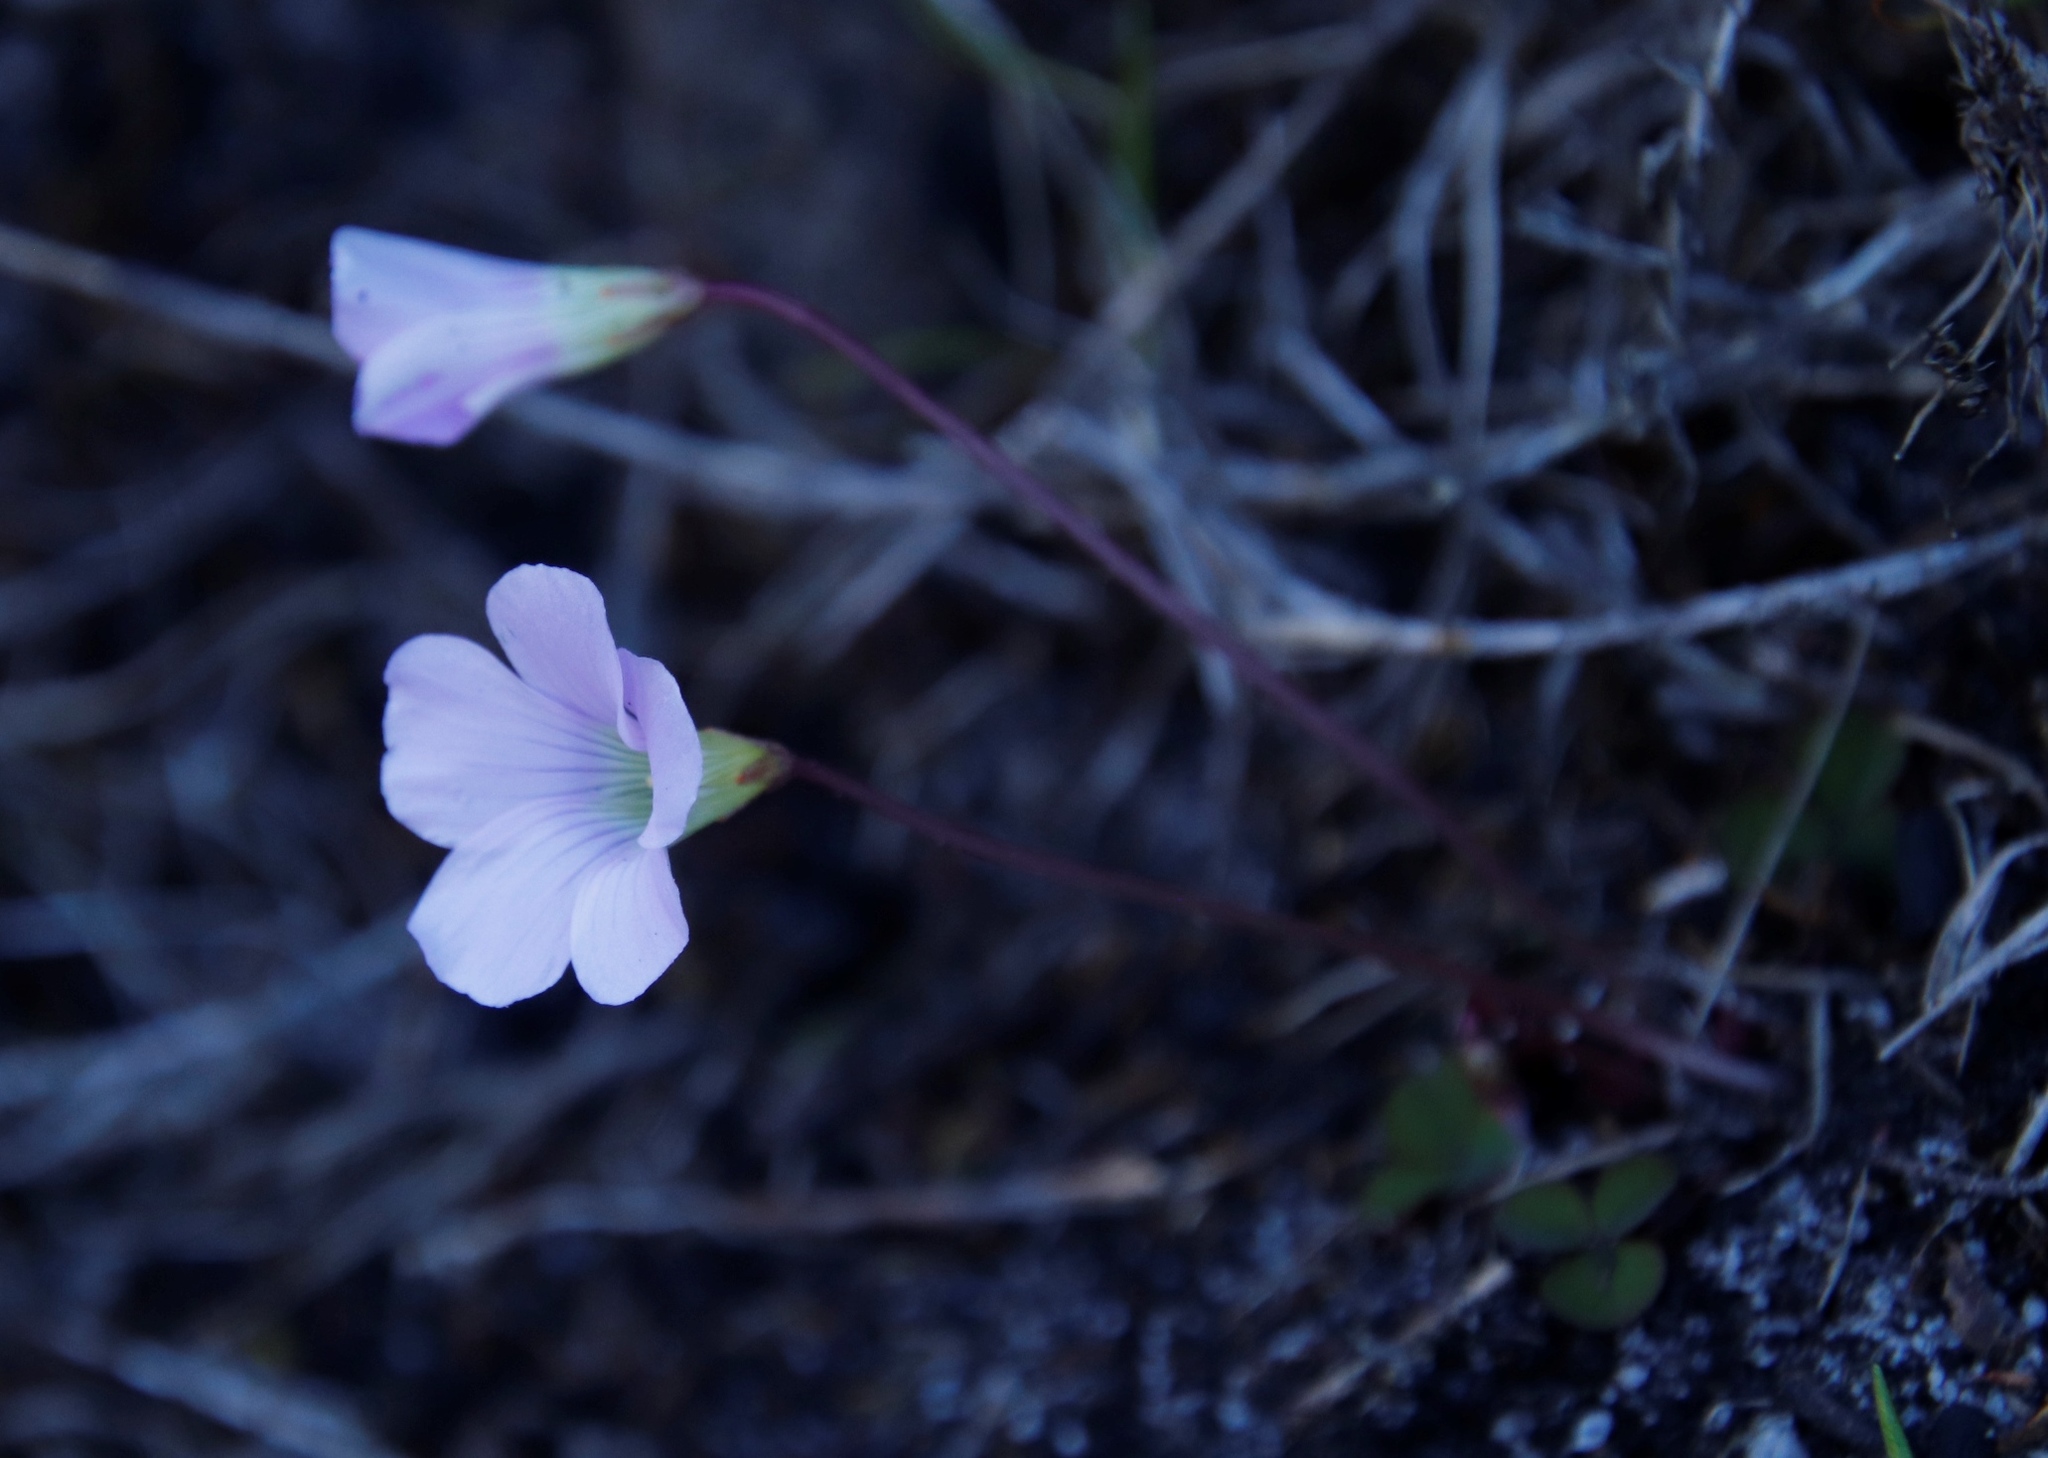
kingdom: Plantae
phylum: Tracheophyta
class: Magnoliopsida
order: Oxalidales
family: Oxalidaceae
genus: Oxalis
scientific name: Oxalis commutata
